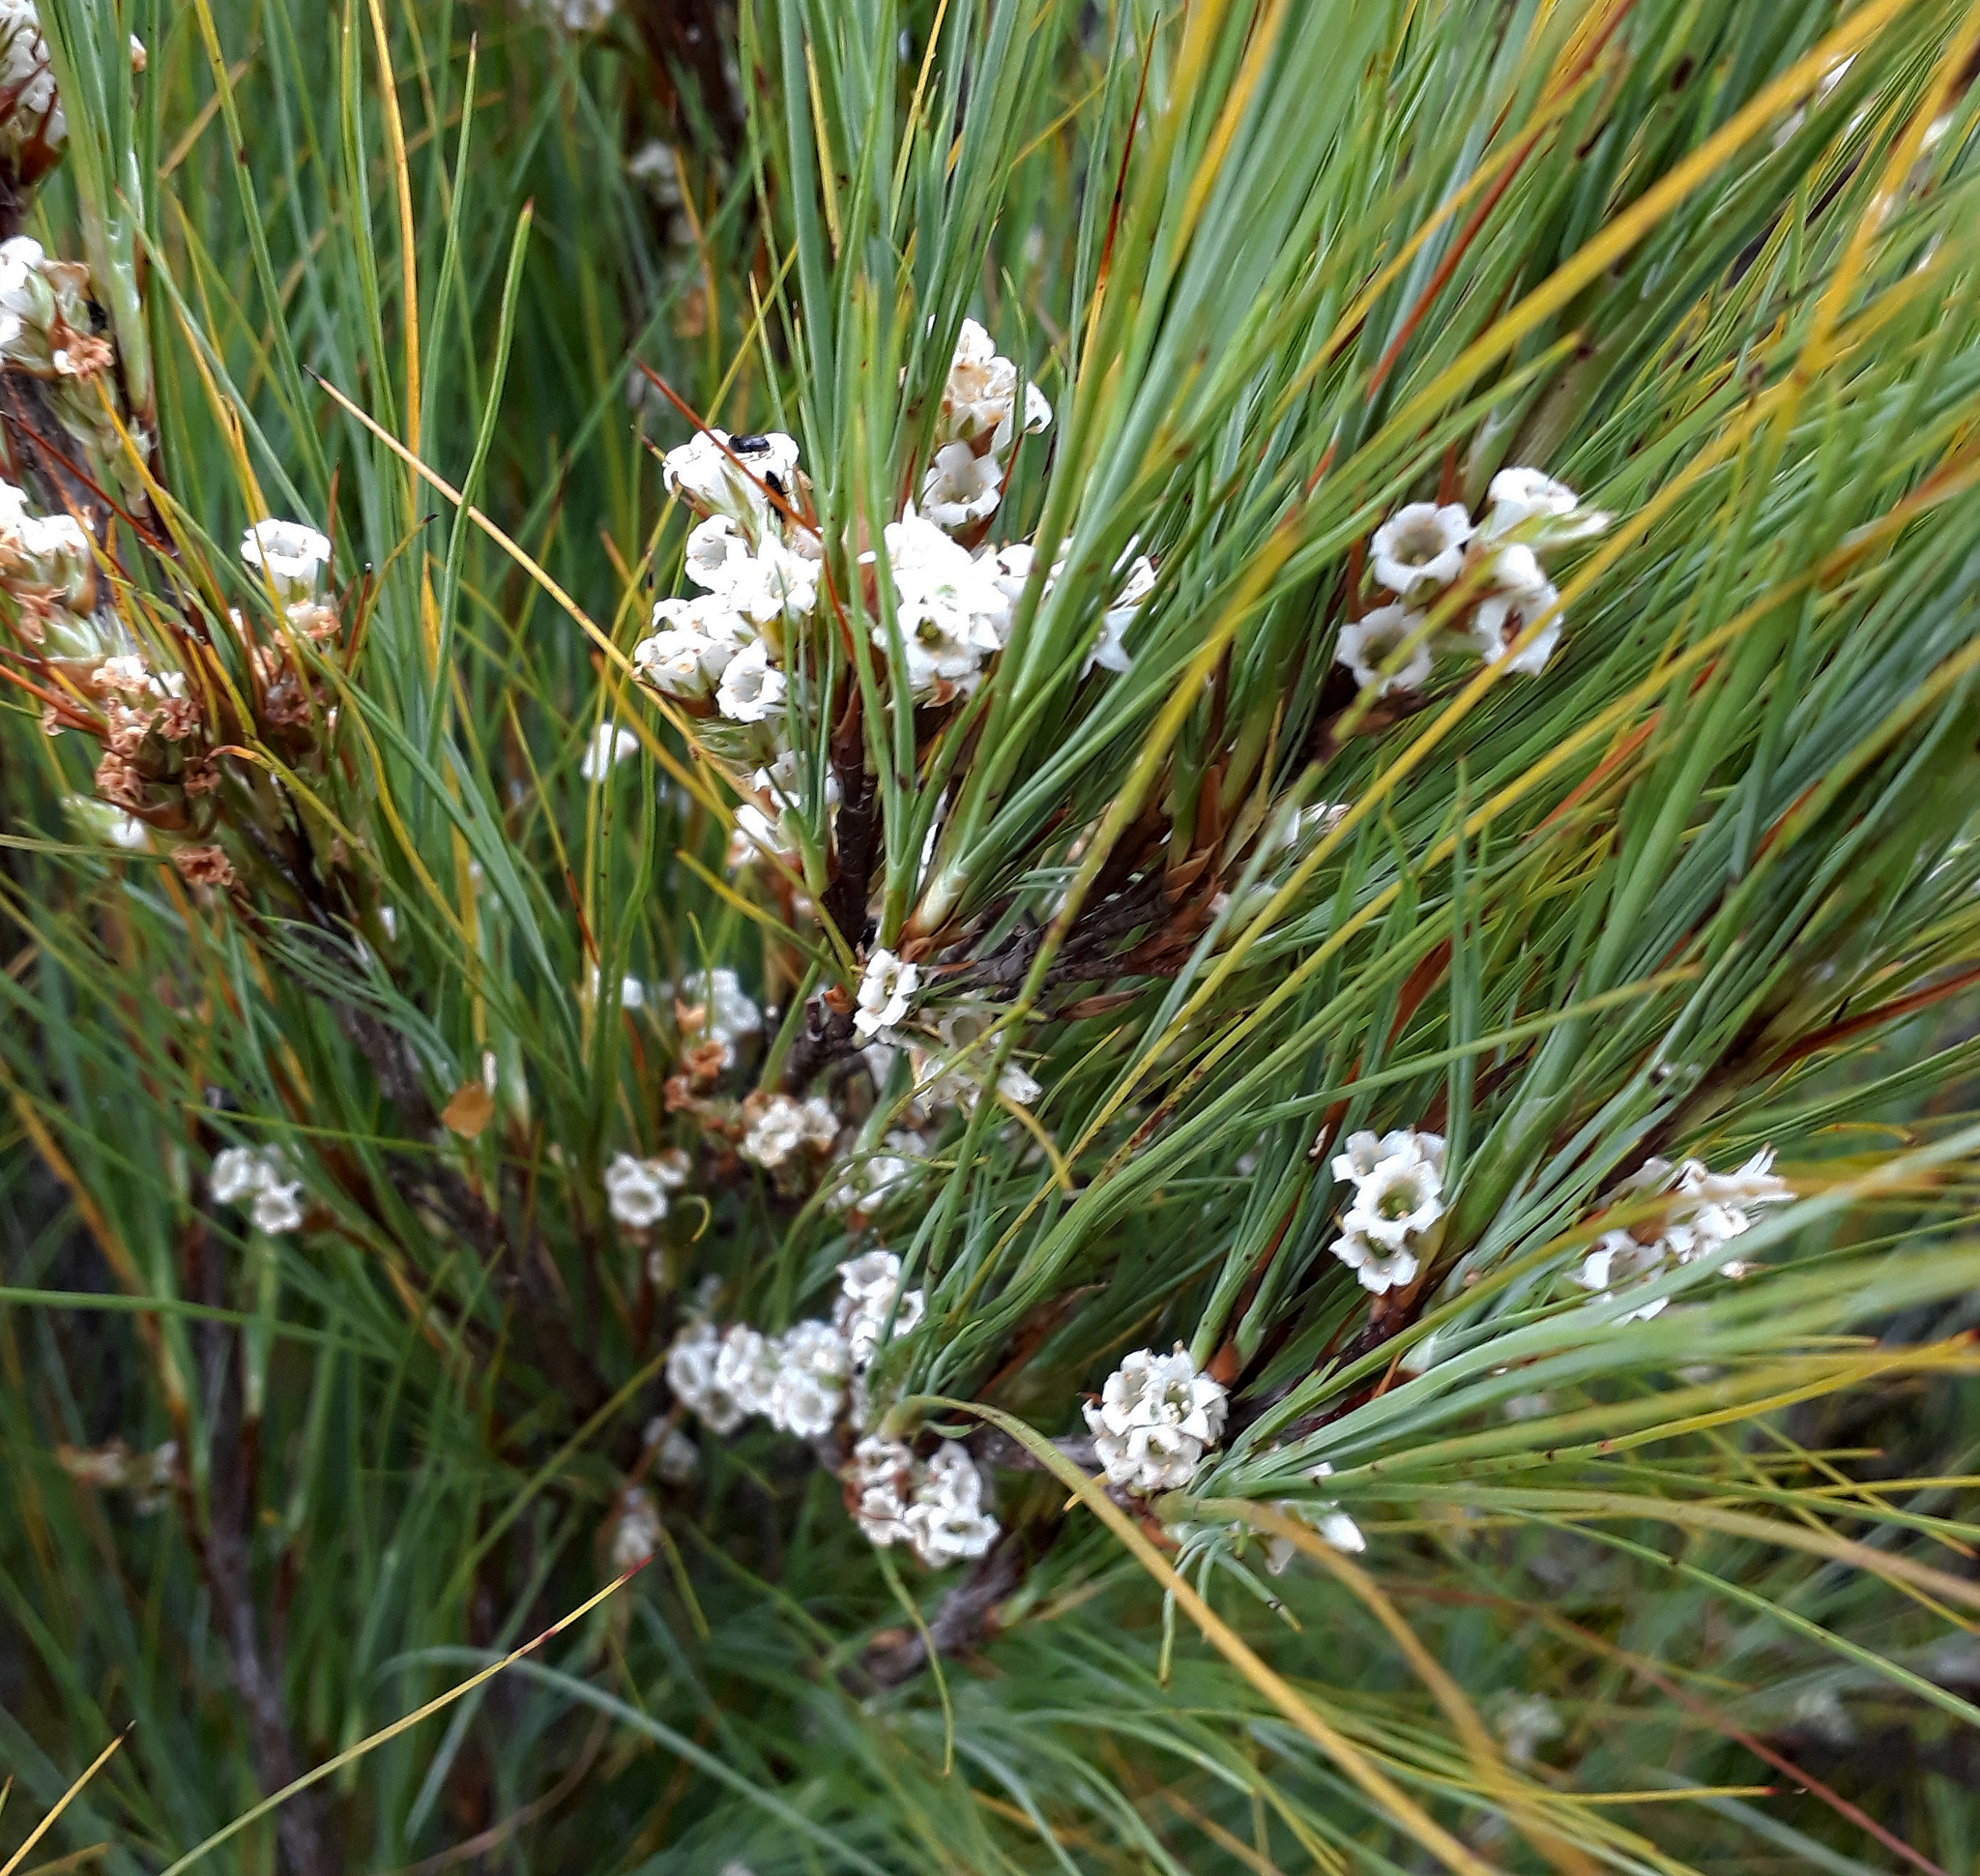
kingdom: Plantae
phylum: Tracheophyta
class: Magnoliopsida
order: Ericales
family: Ericaceae
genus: Dracophyllum
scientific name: Dracophyllum filifolium
